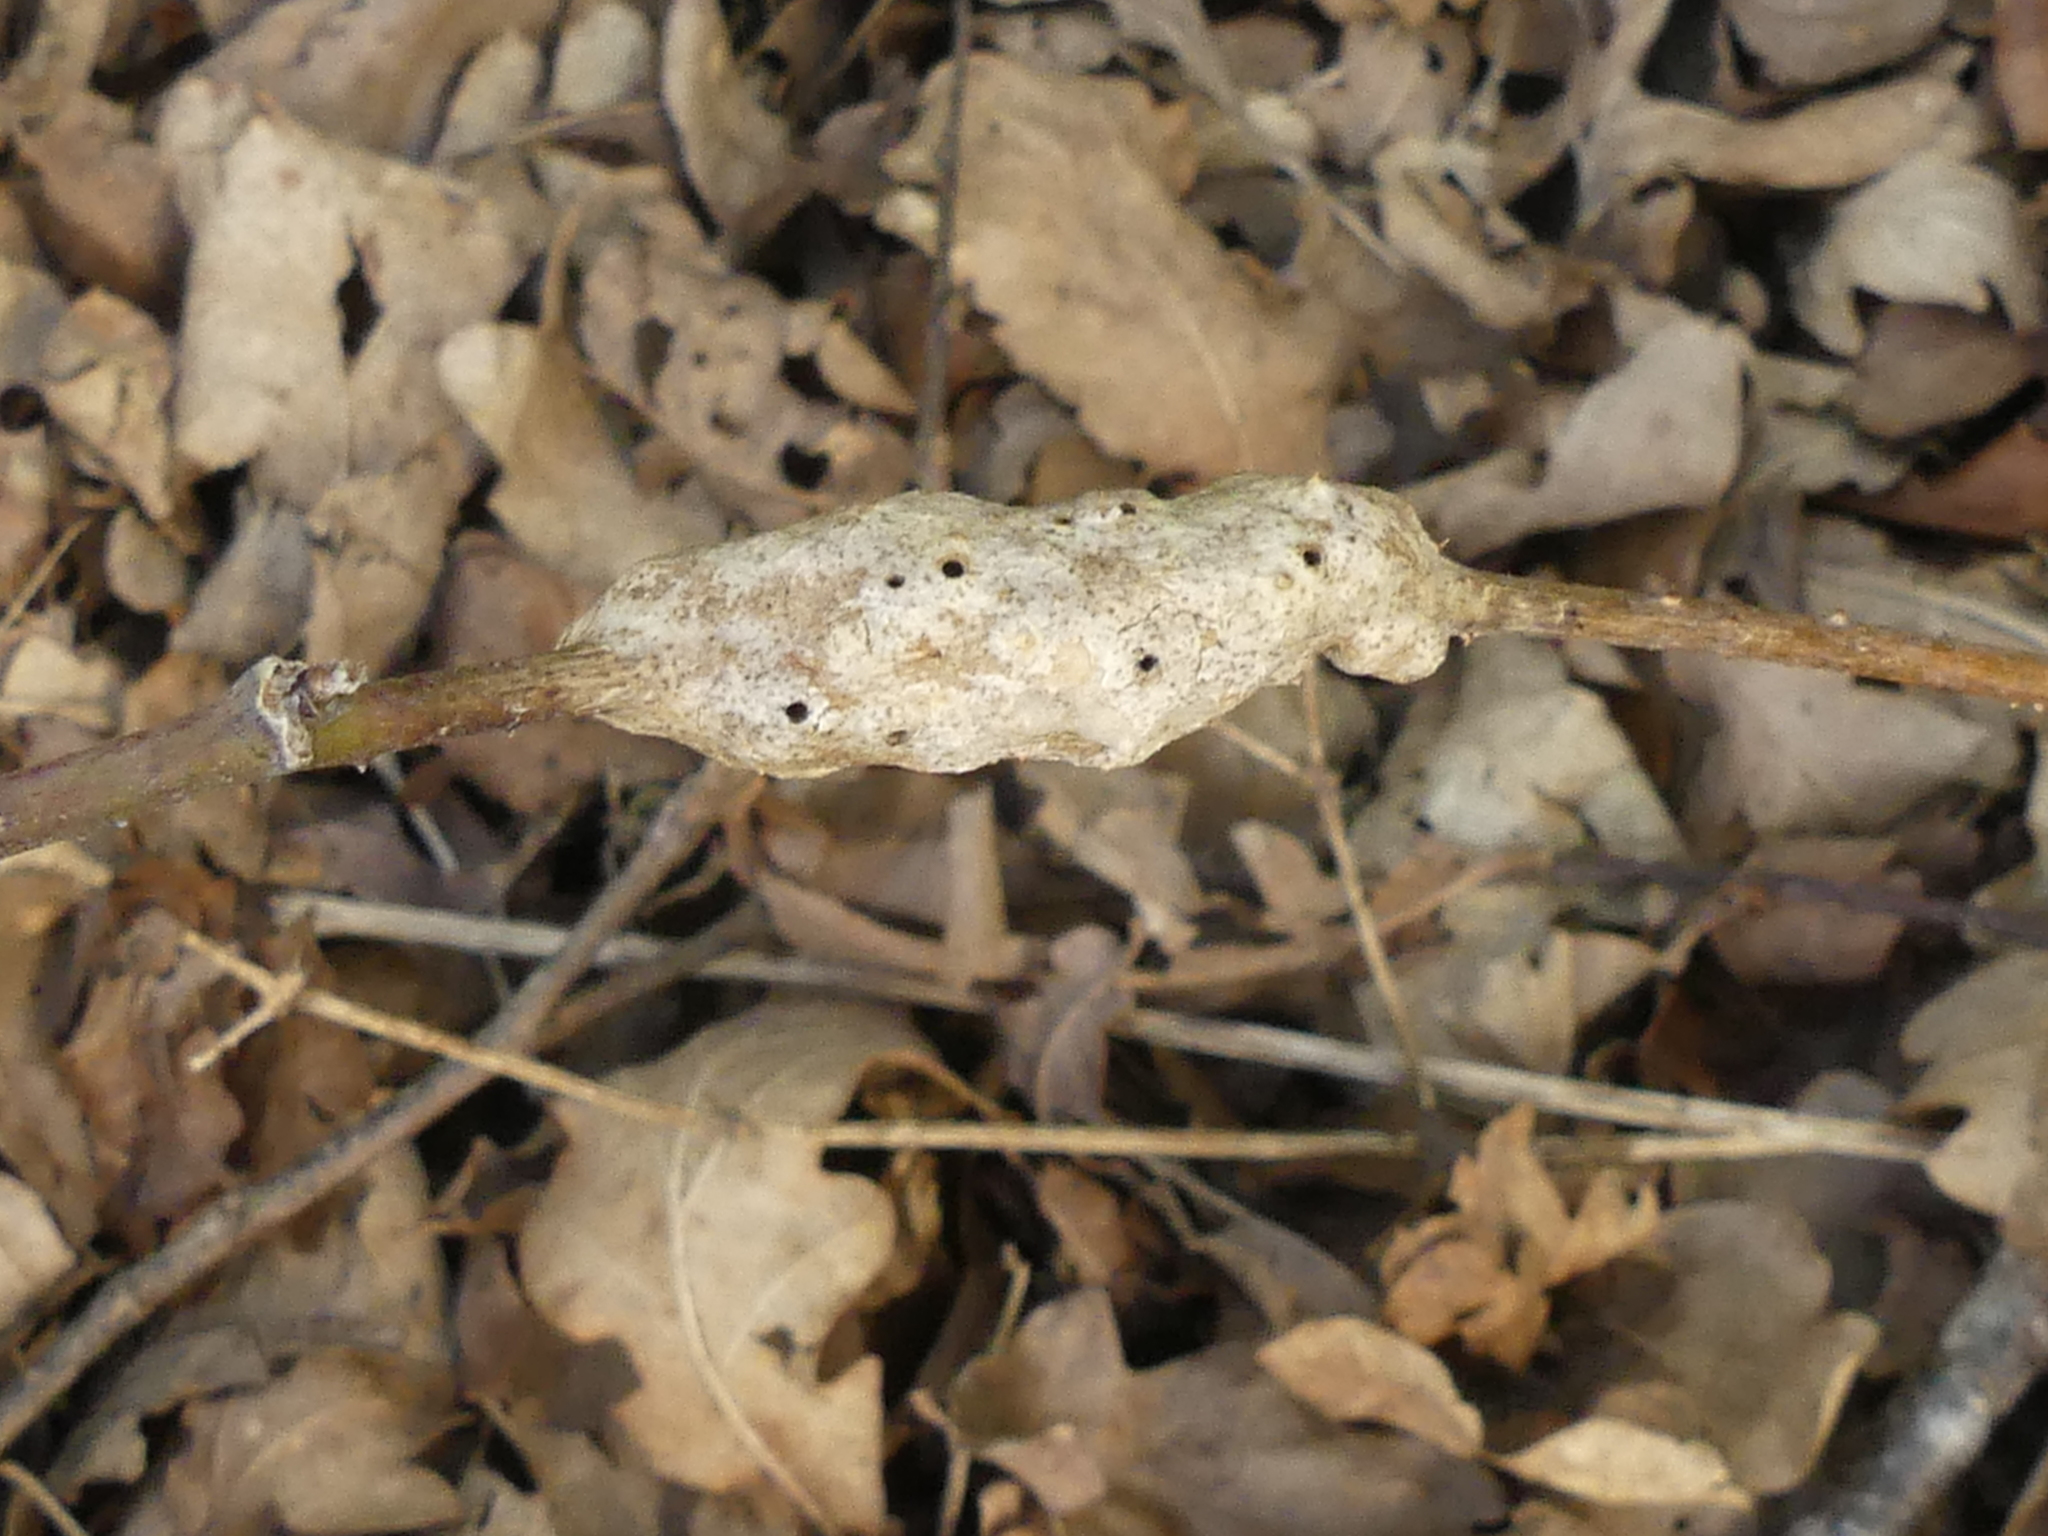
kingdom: Animalia
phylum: Arthropoda
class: Insecta
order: Hymenoptera
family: Cynipidae
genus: Diastrophus
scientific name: Diastrophus rubi
